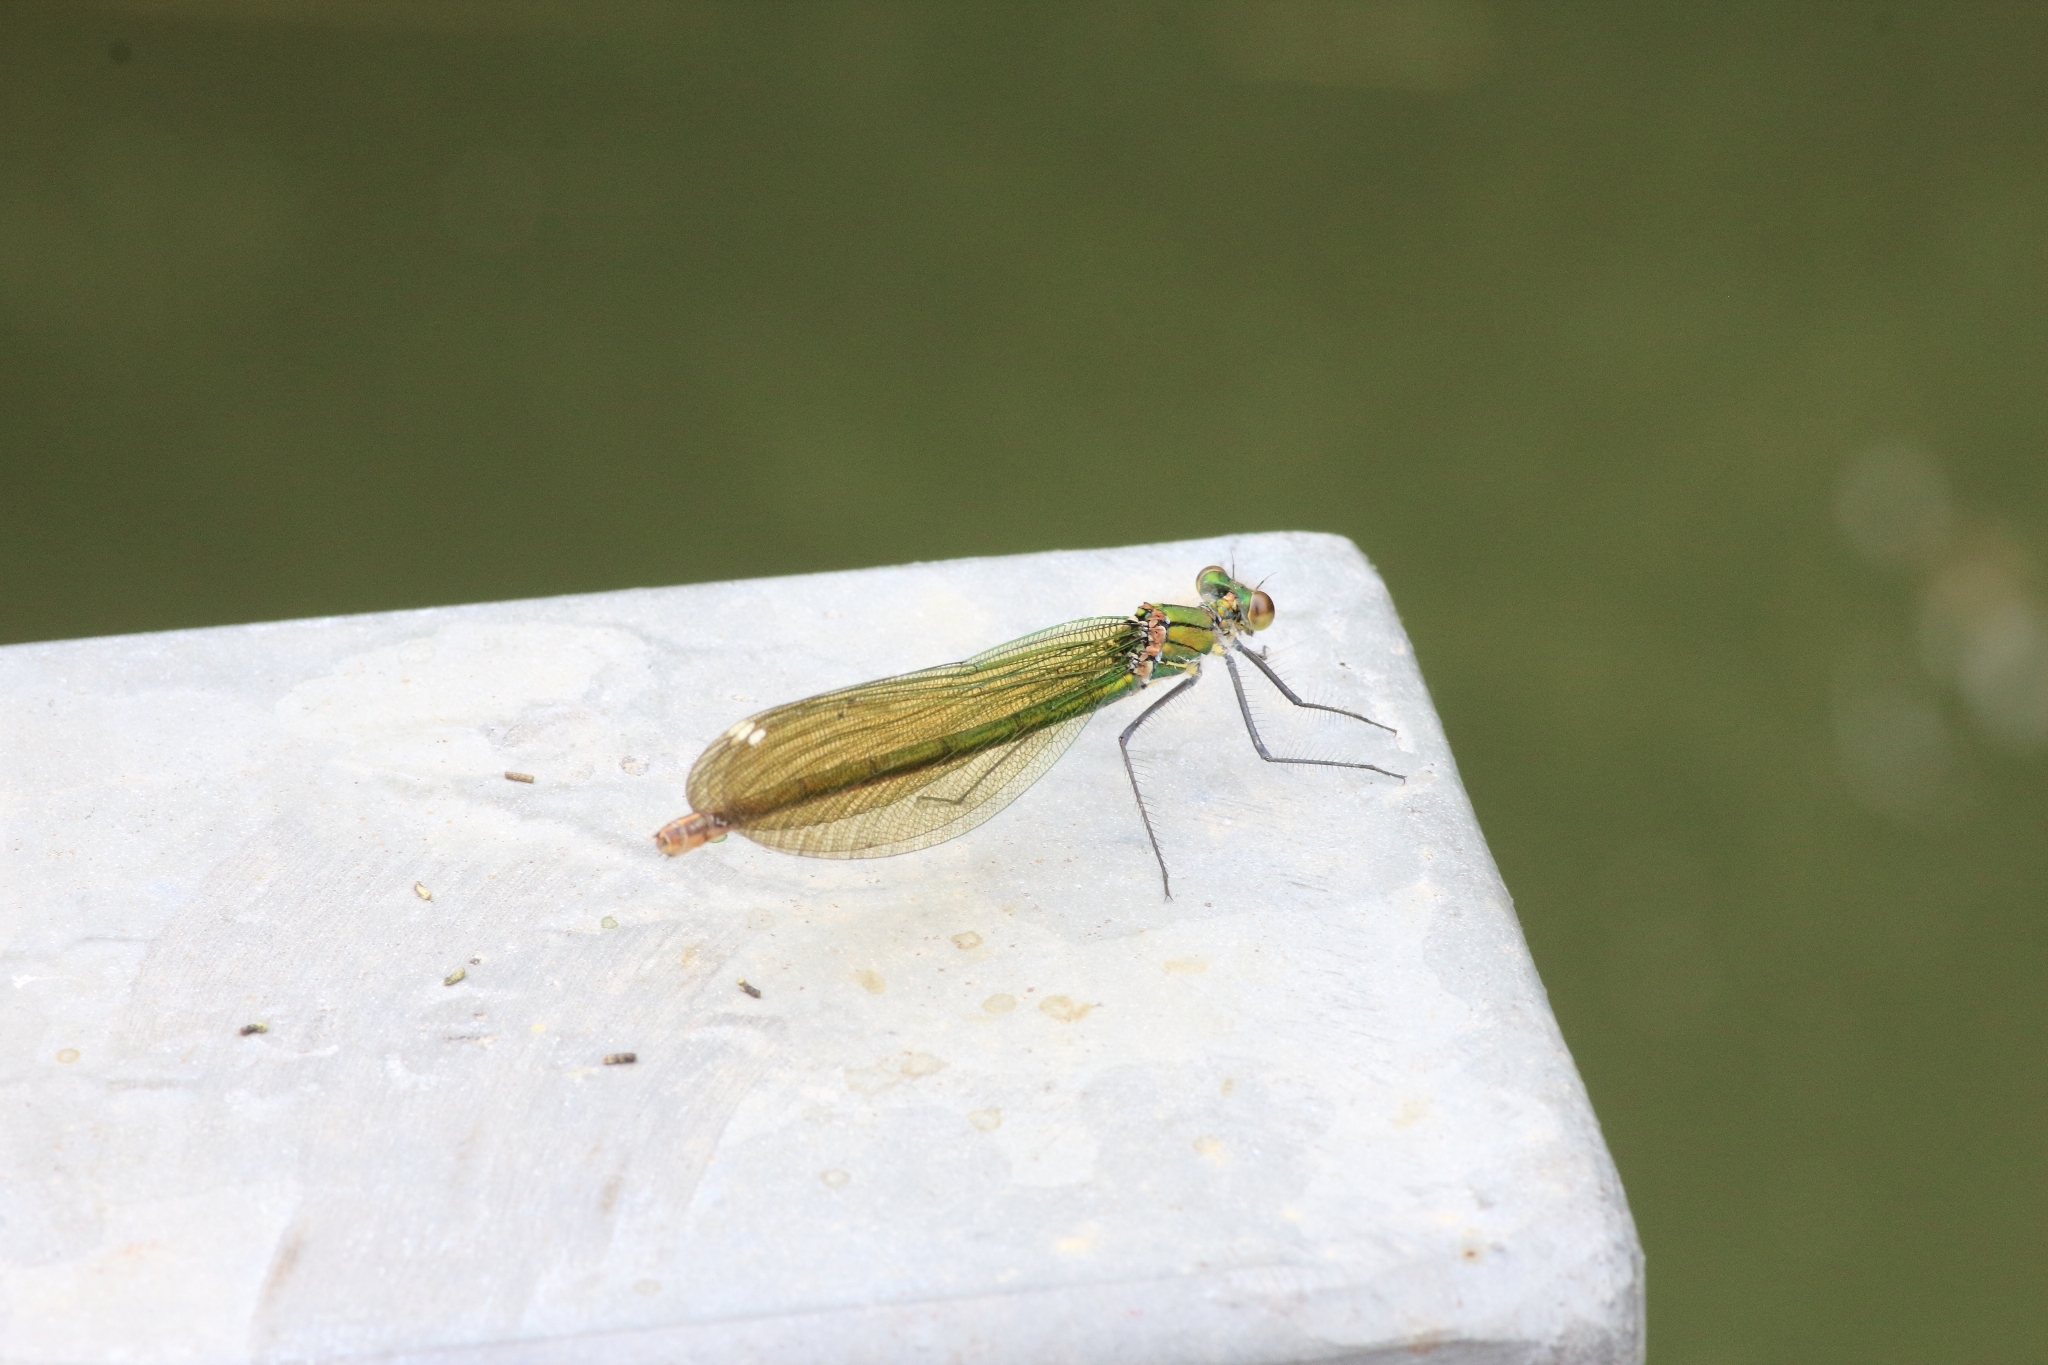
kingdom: Animalia
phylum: Arthropoda
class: Insecta
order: Odonata
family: Calopterygidae
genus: Calopteryx
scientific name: Calopteryx splendens
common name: Banded demoiselle
